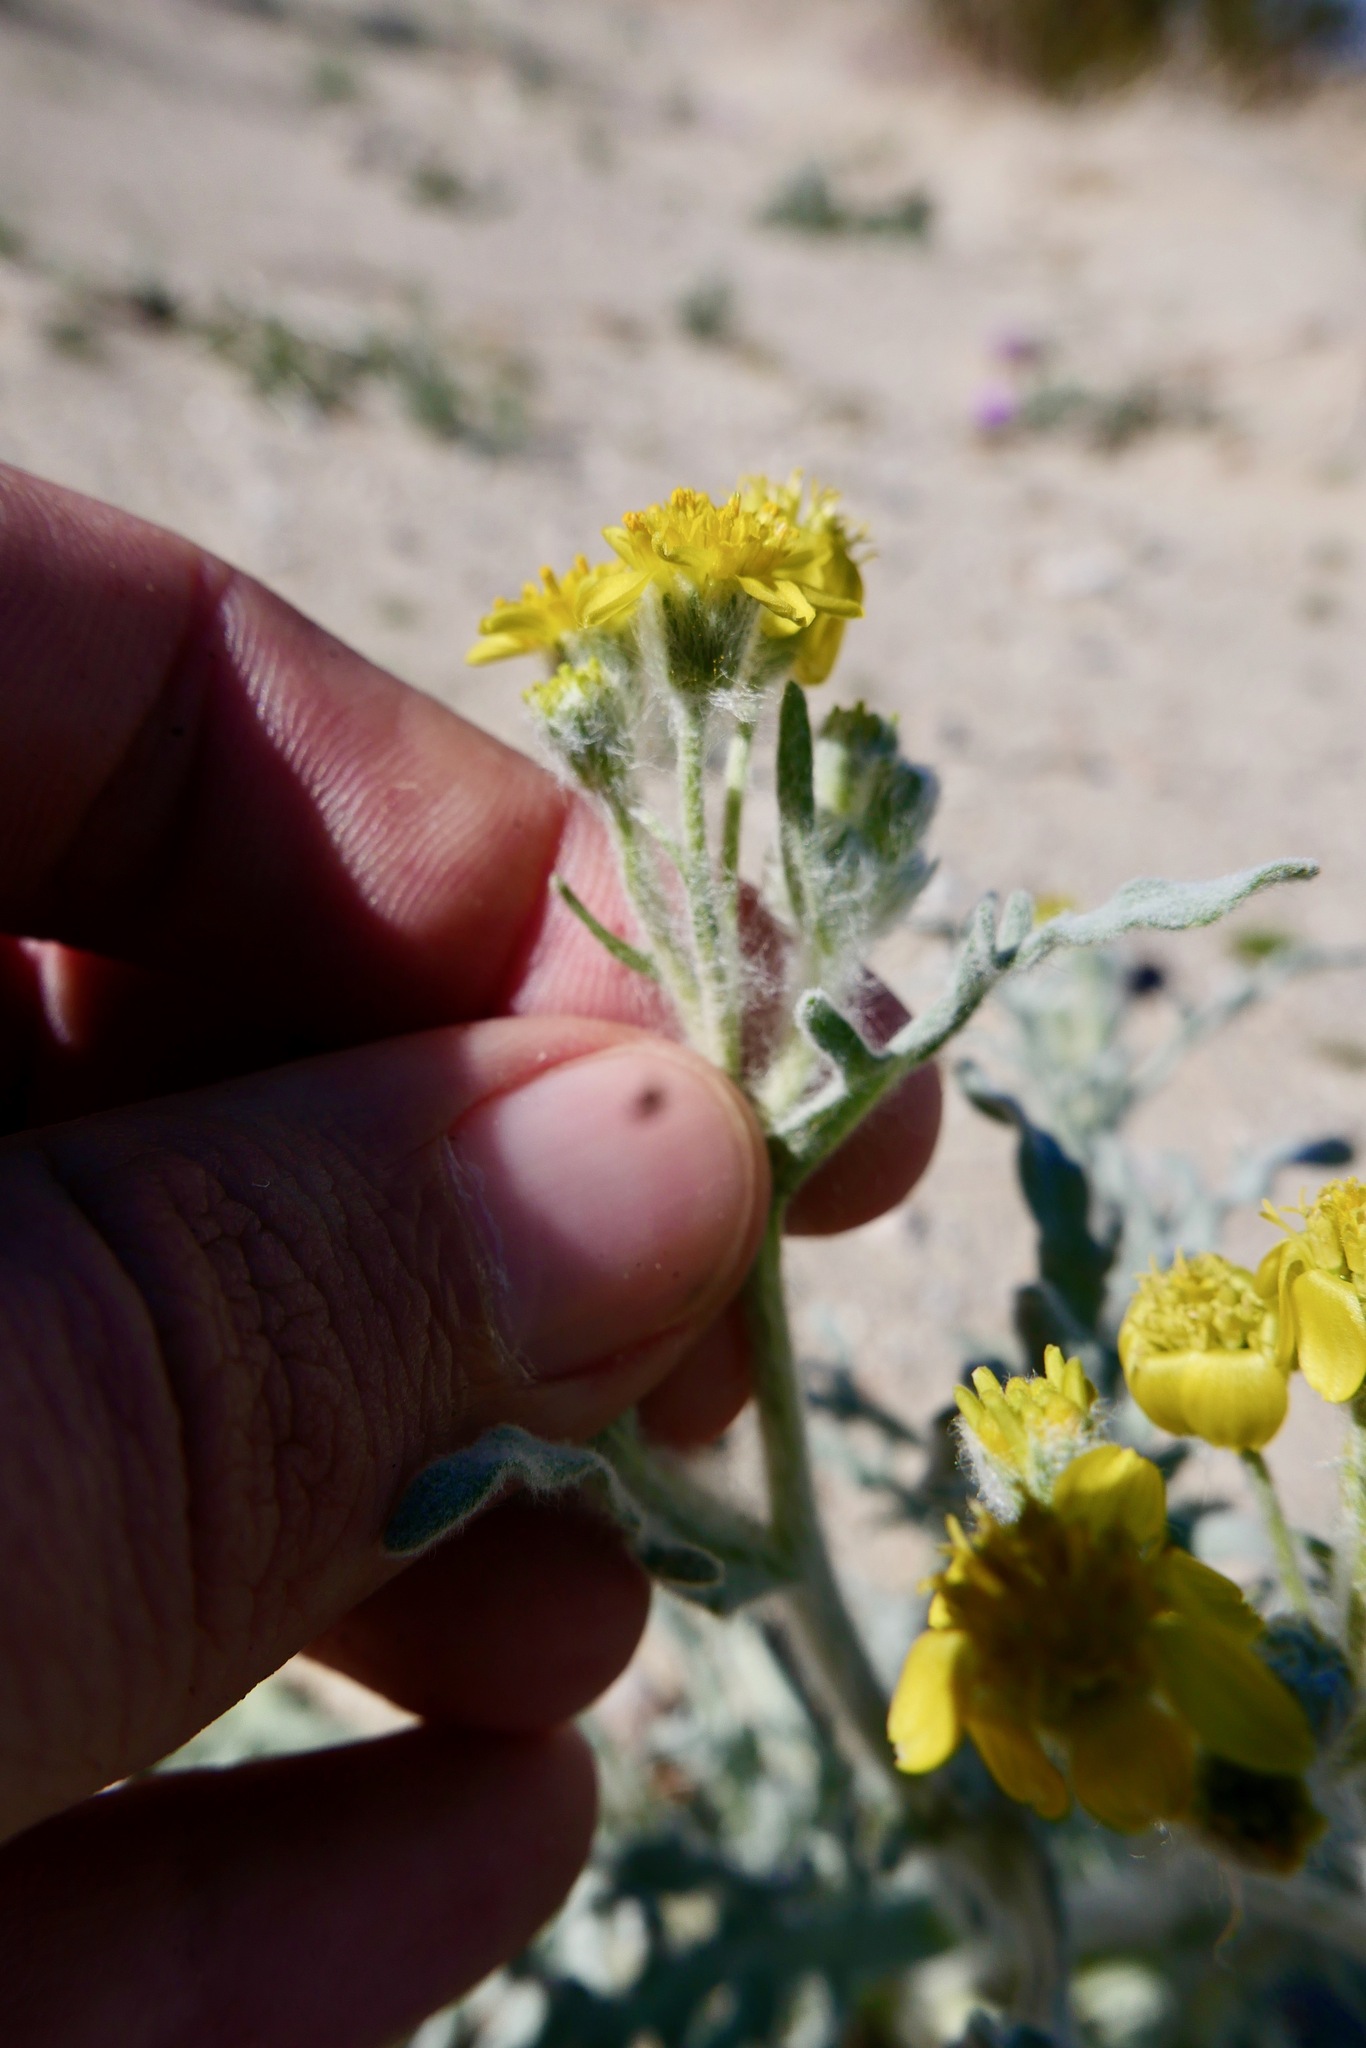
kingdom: Plantae
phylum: Tracheophyta
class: Magnoliopsida
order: Asterales
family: Asteraceae
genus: Baileya
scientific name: Baileya pauciradiata
